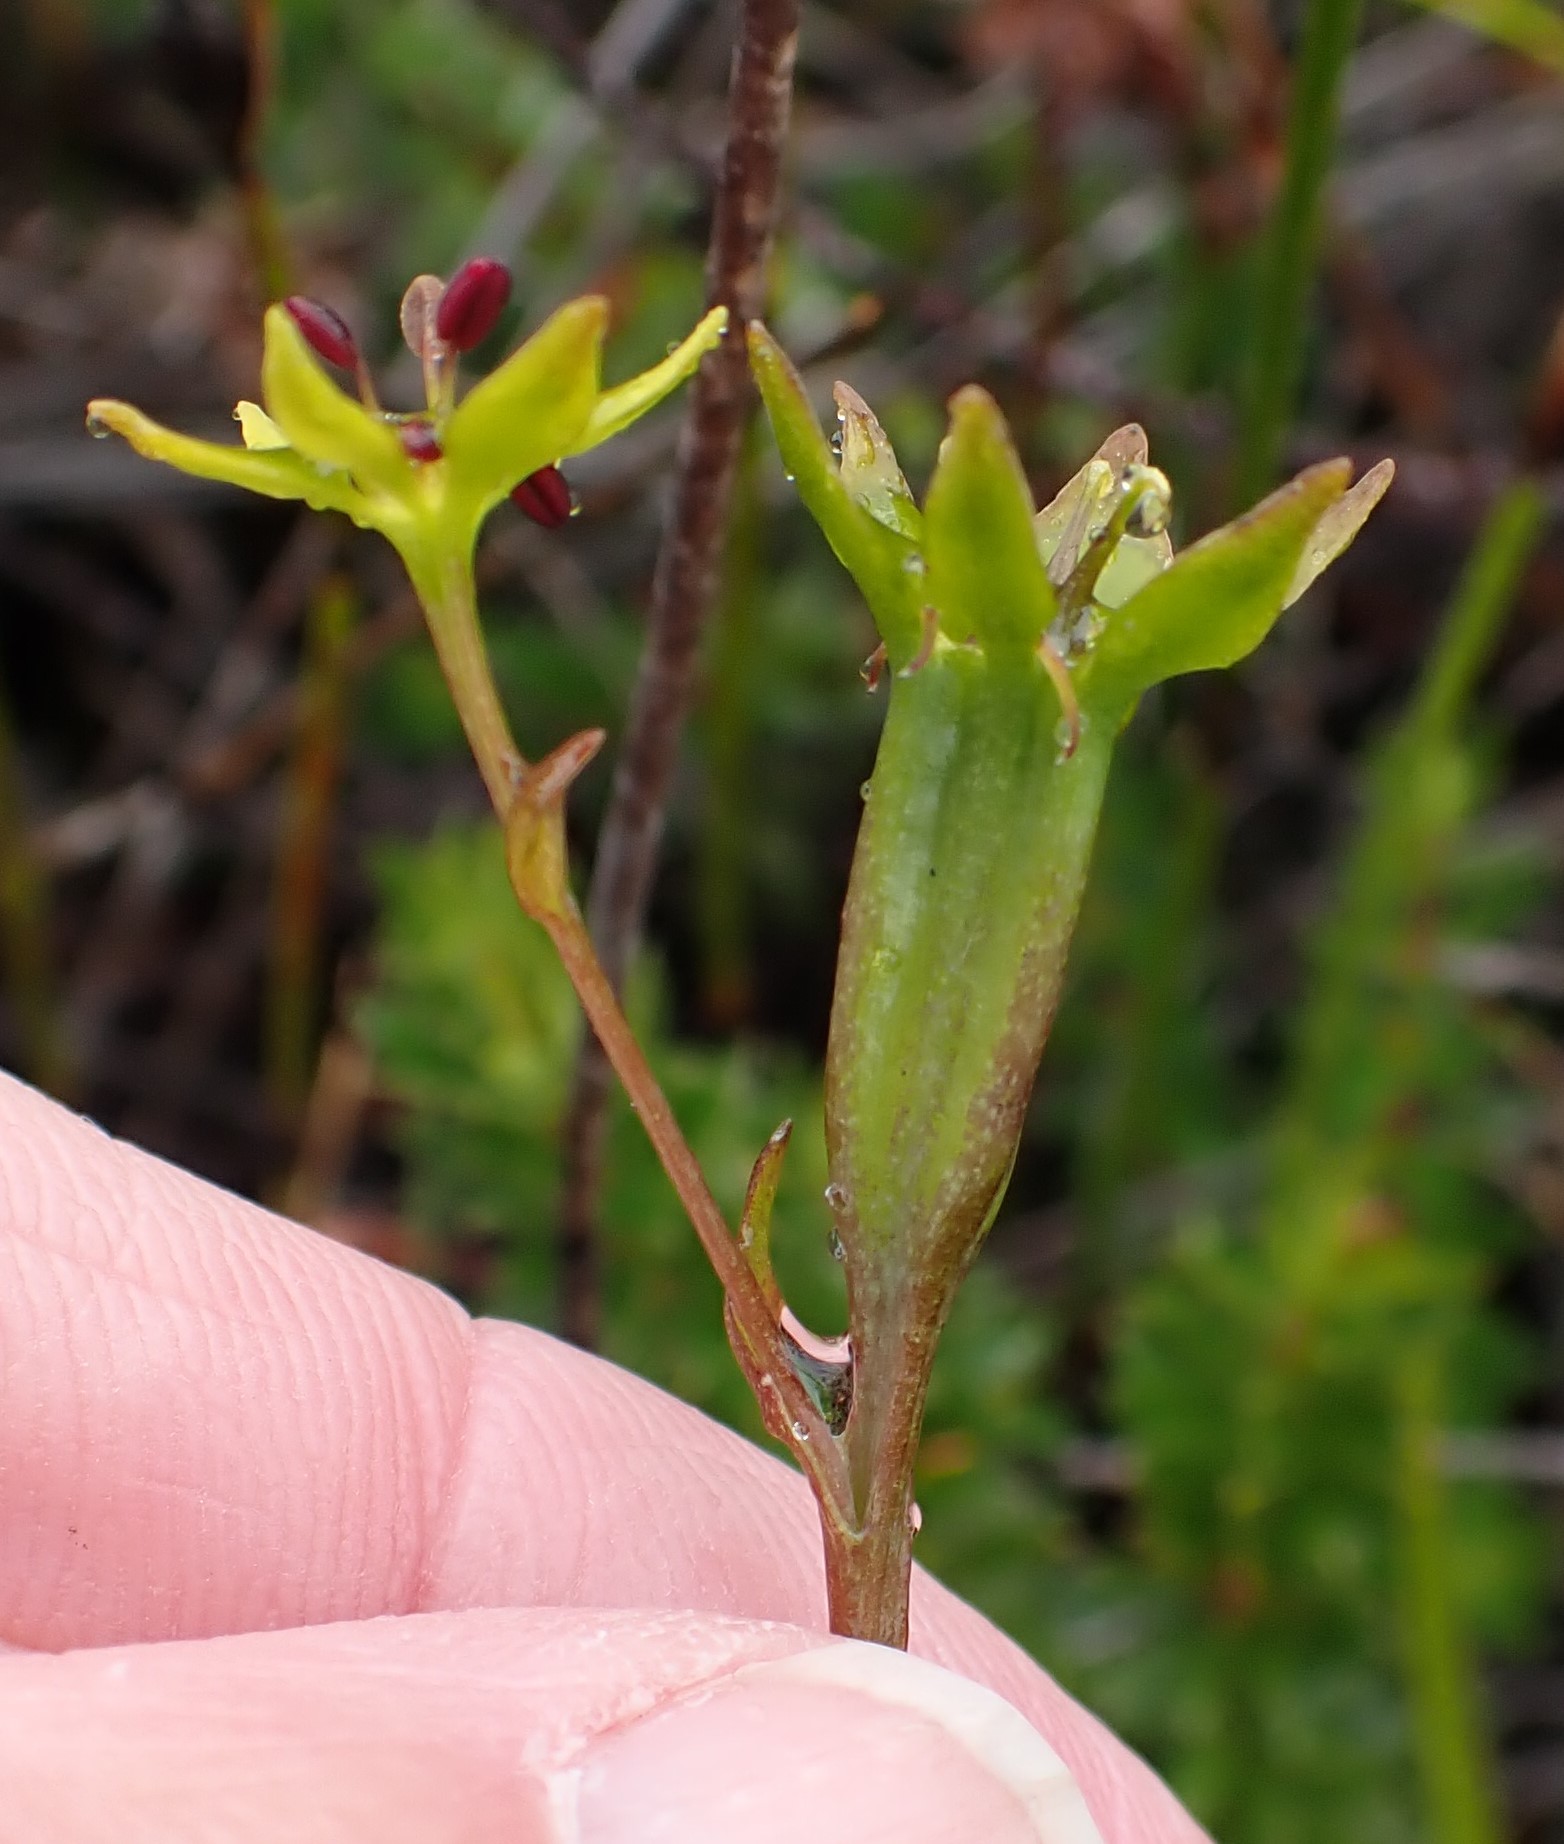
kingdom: Plantae
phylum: Tracheophyta
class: Liliopsida
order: Liliales
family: Campynemataceae
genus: Campynema
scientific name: Campynema lineare
